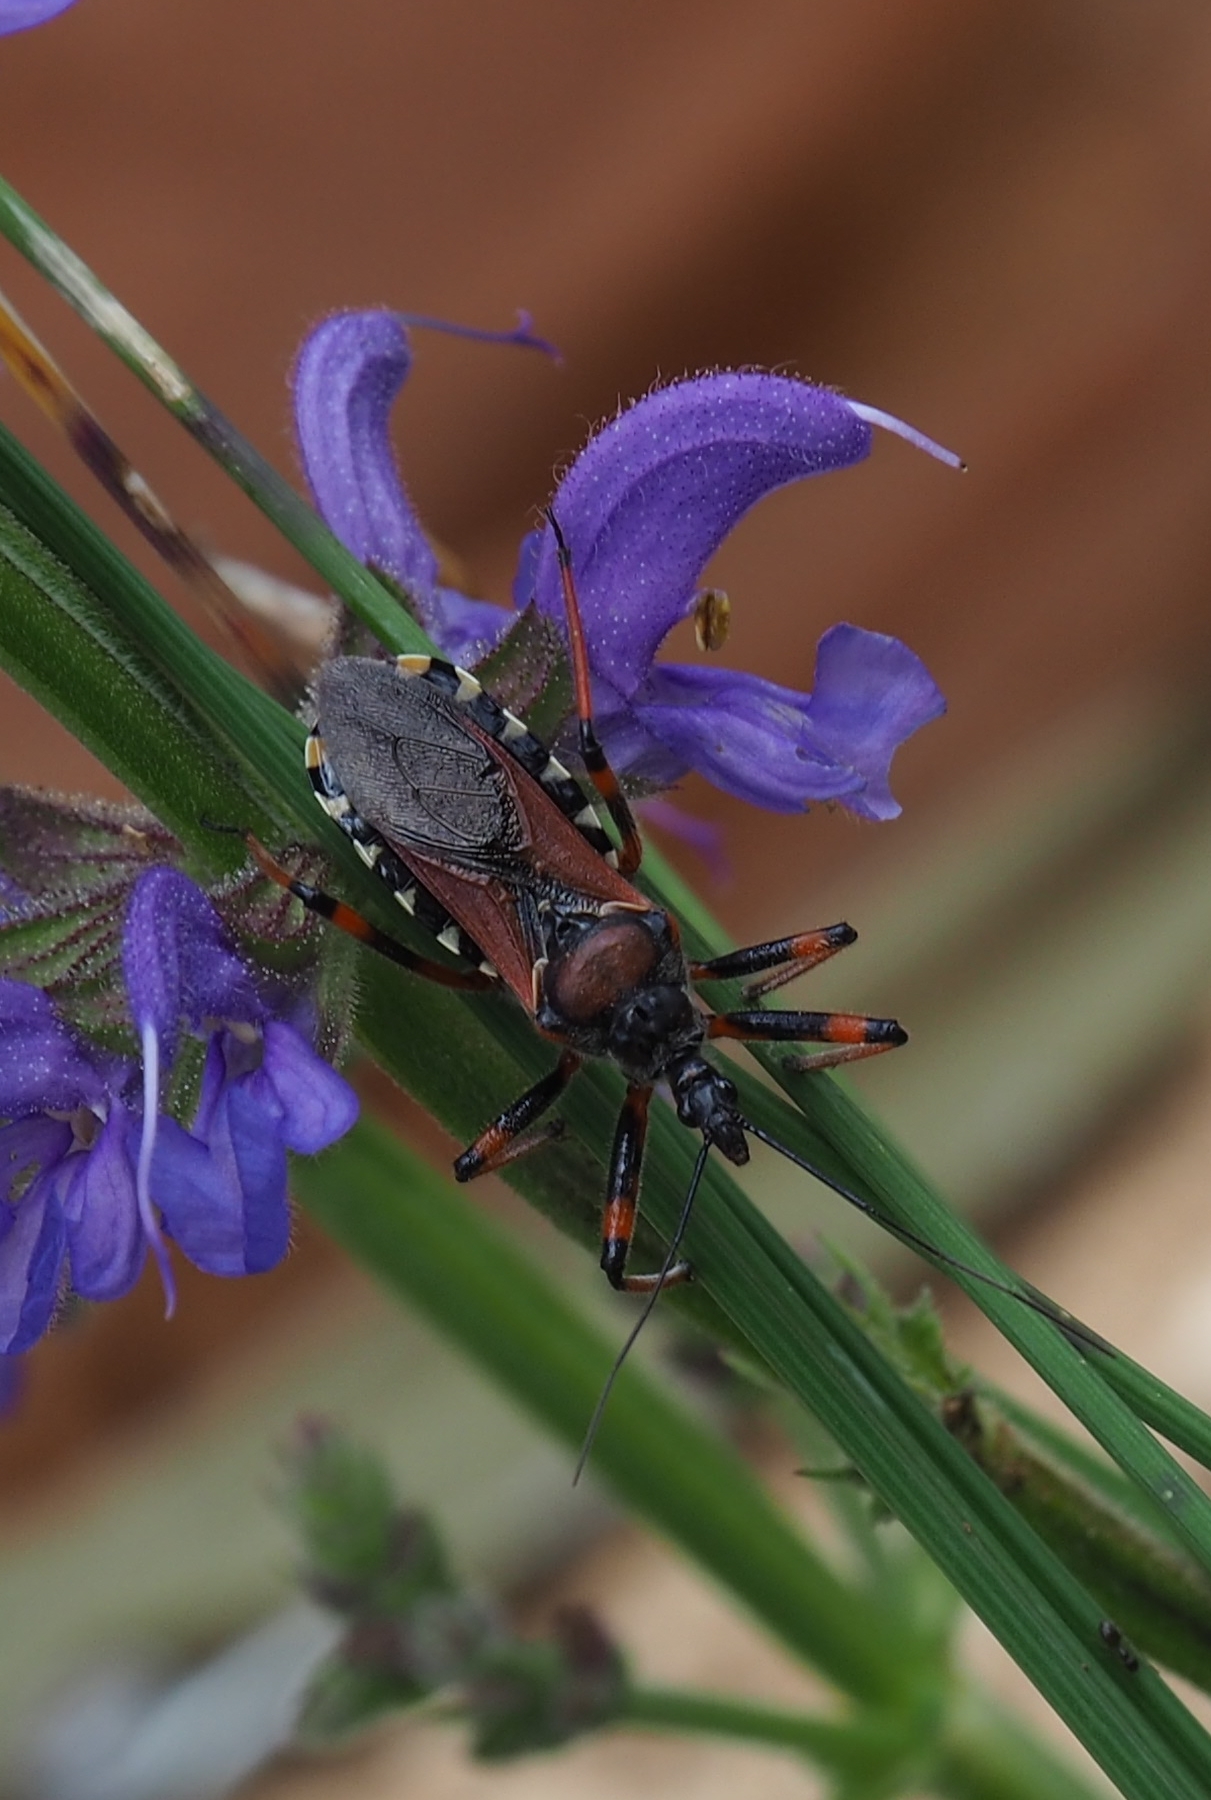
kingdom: Animalia
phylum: Arthropoda
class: Insecta
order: Hemiptera
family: Reduviidae
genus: Rhynocoris
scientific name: Rhynocoris
